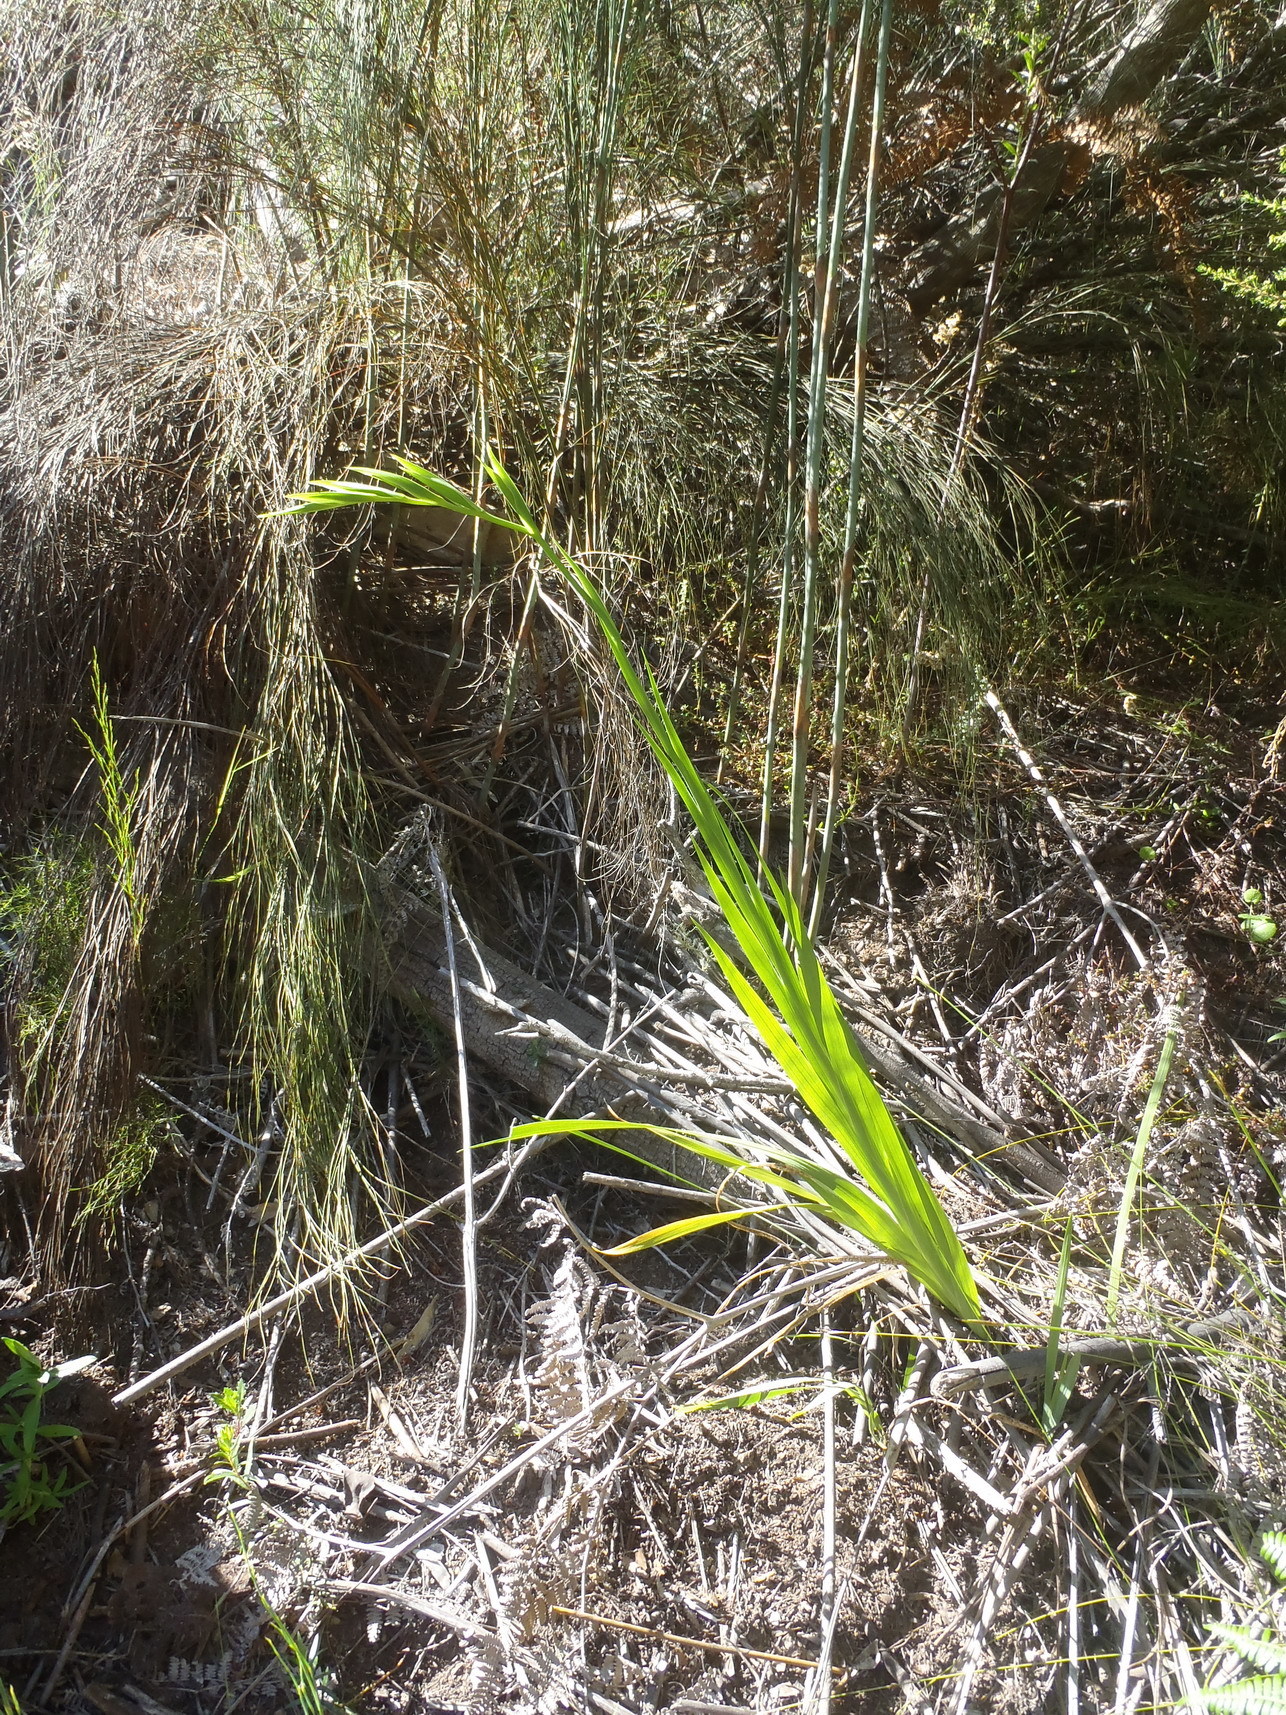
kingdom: Plantae
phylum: Tracheophyta
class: Liliopsida
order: Asparagales
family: Iridaceae
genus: Gladiolus
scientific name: Gladiolus sempervirens
